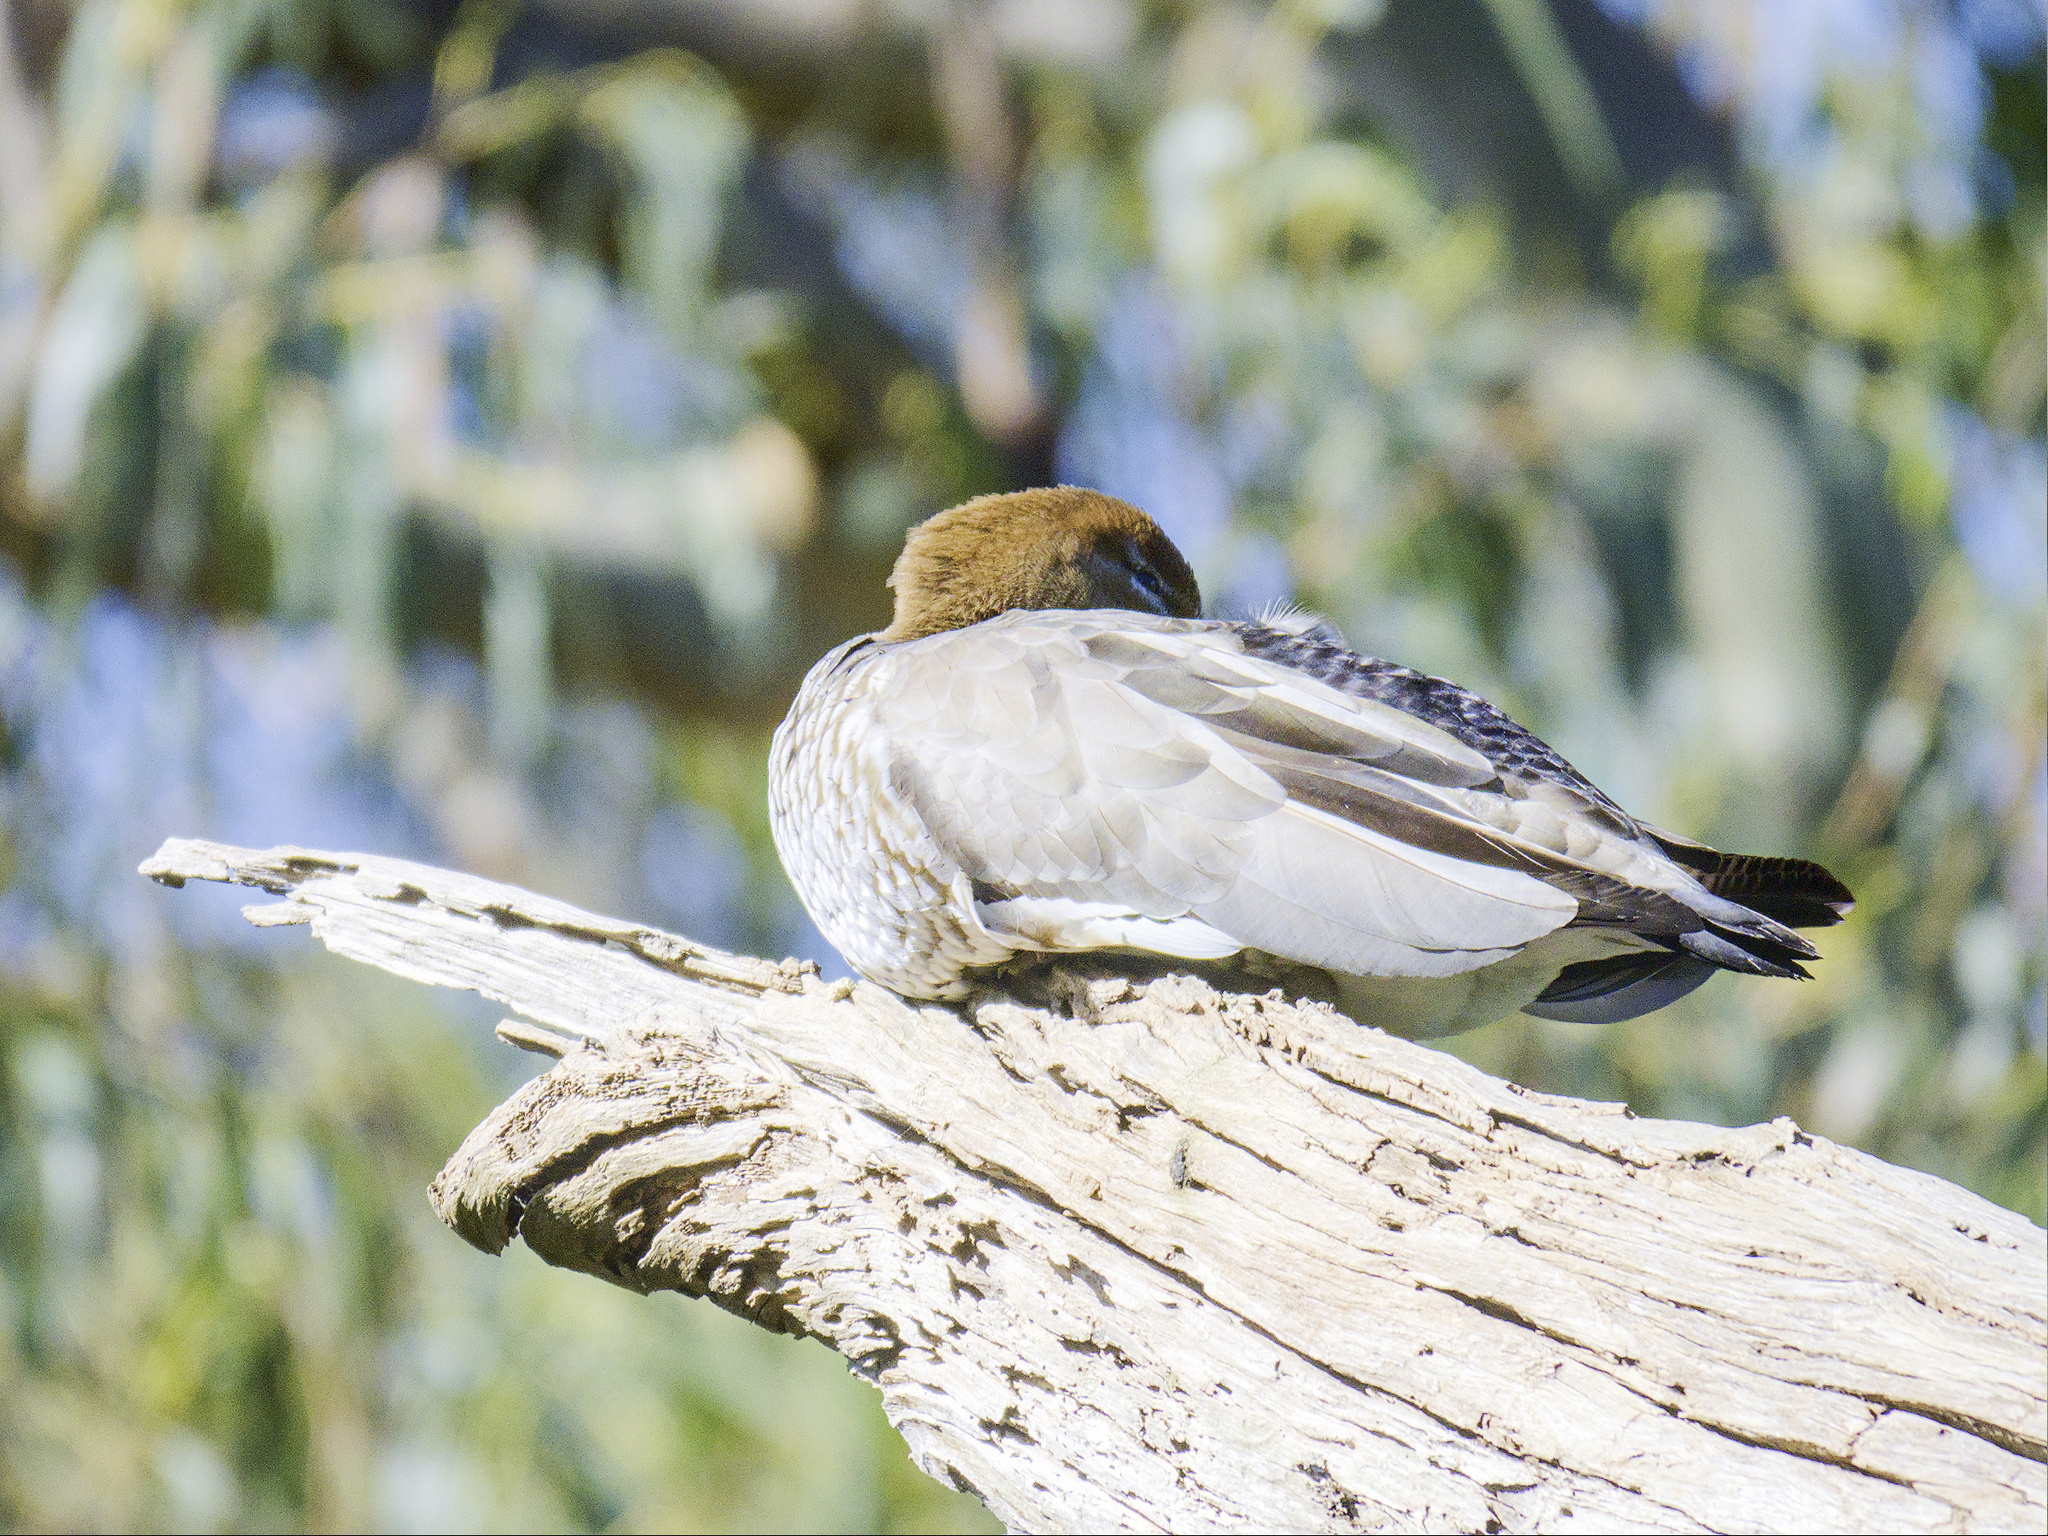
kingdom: Animalia
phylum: Chordata
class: Aves
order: Anseriformes
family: Anatidae
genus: Chenonetta
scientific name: Chenonetta jubata
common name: Maned duck
